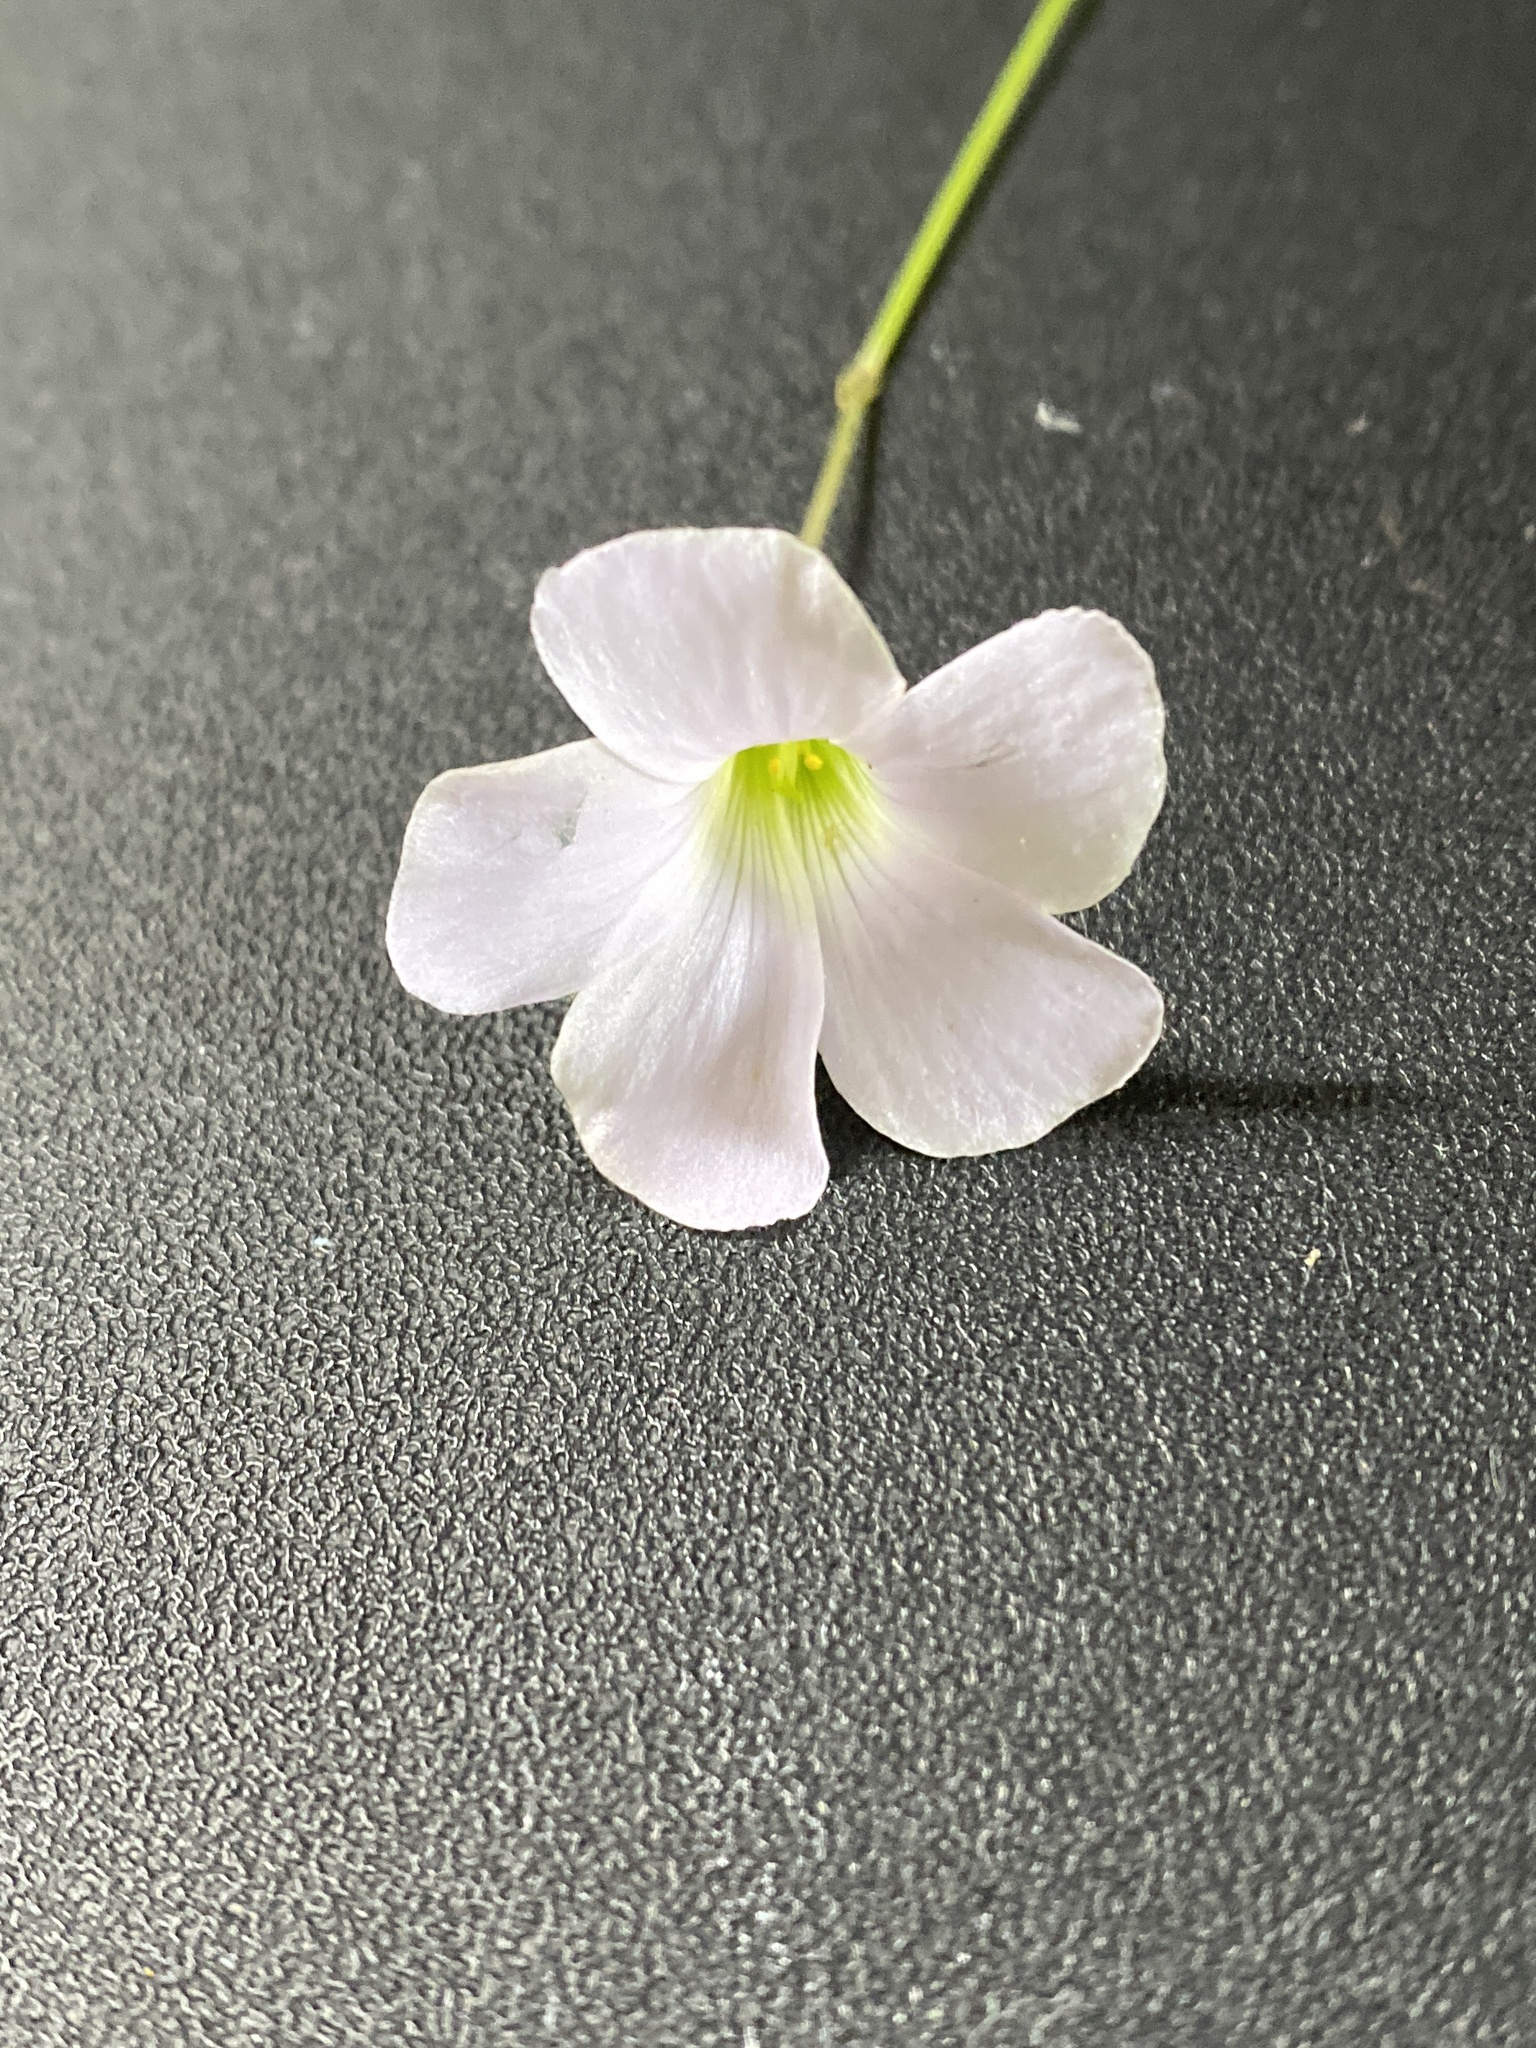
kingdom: Plantae
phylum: Tracheophyta
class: Magnoliopsida
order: Oxalidales
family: Oxalidaceae
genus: Oxalis
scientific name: Oxalis incarnata
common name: Pale pink-sorrel
